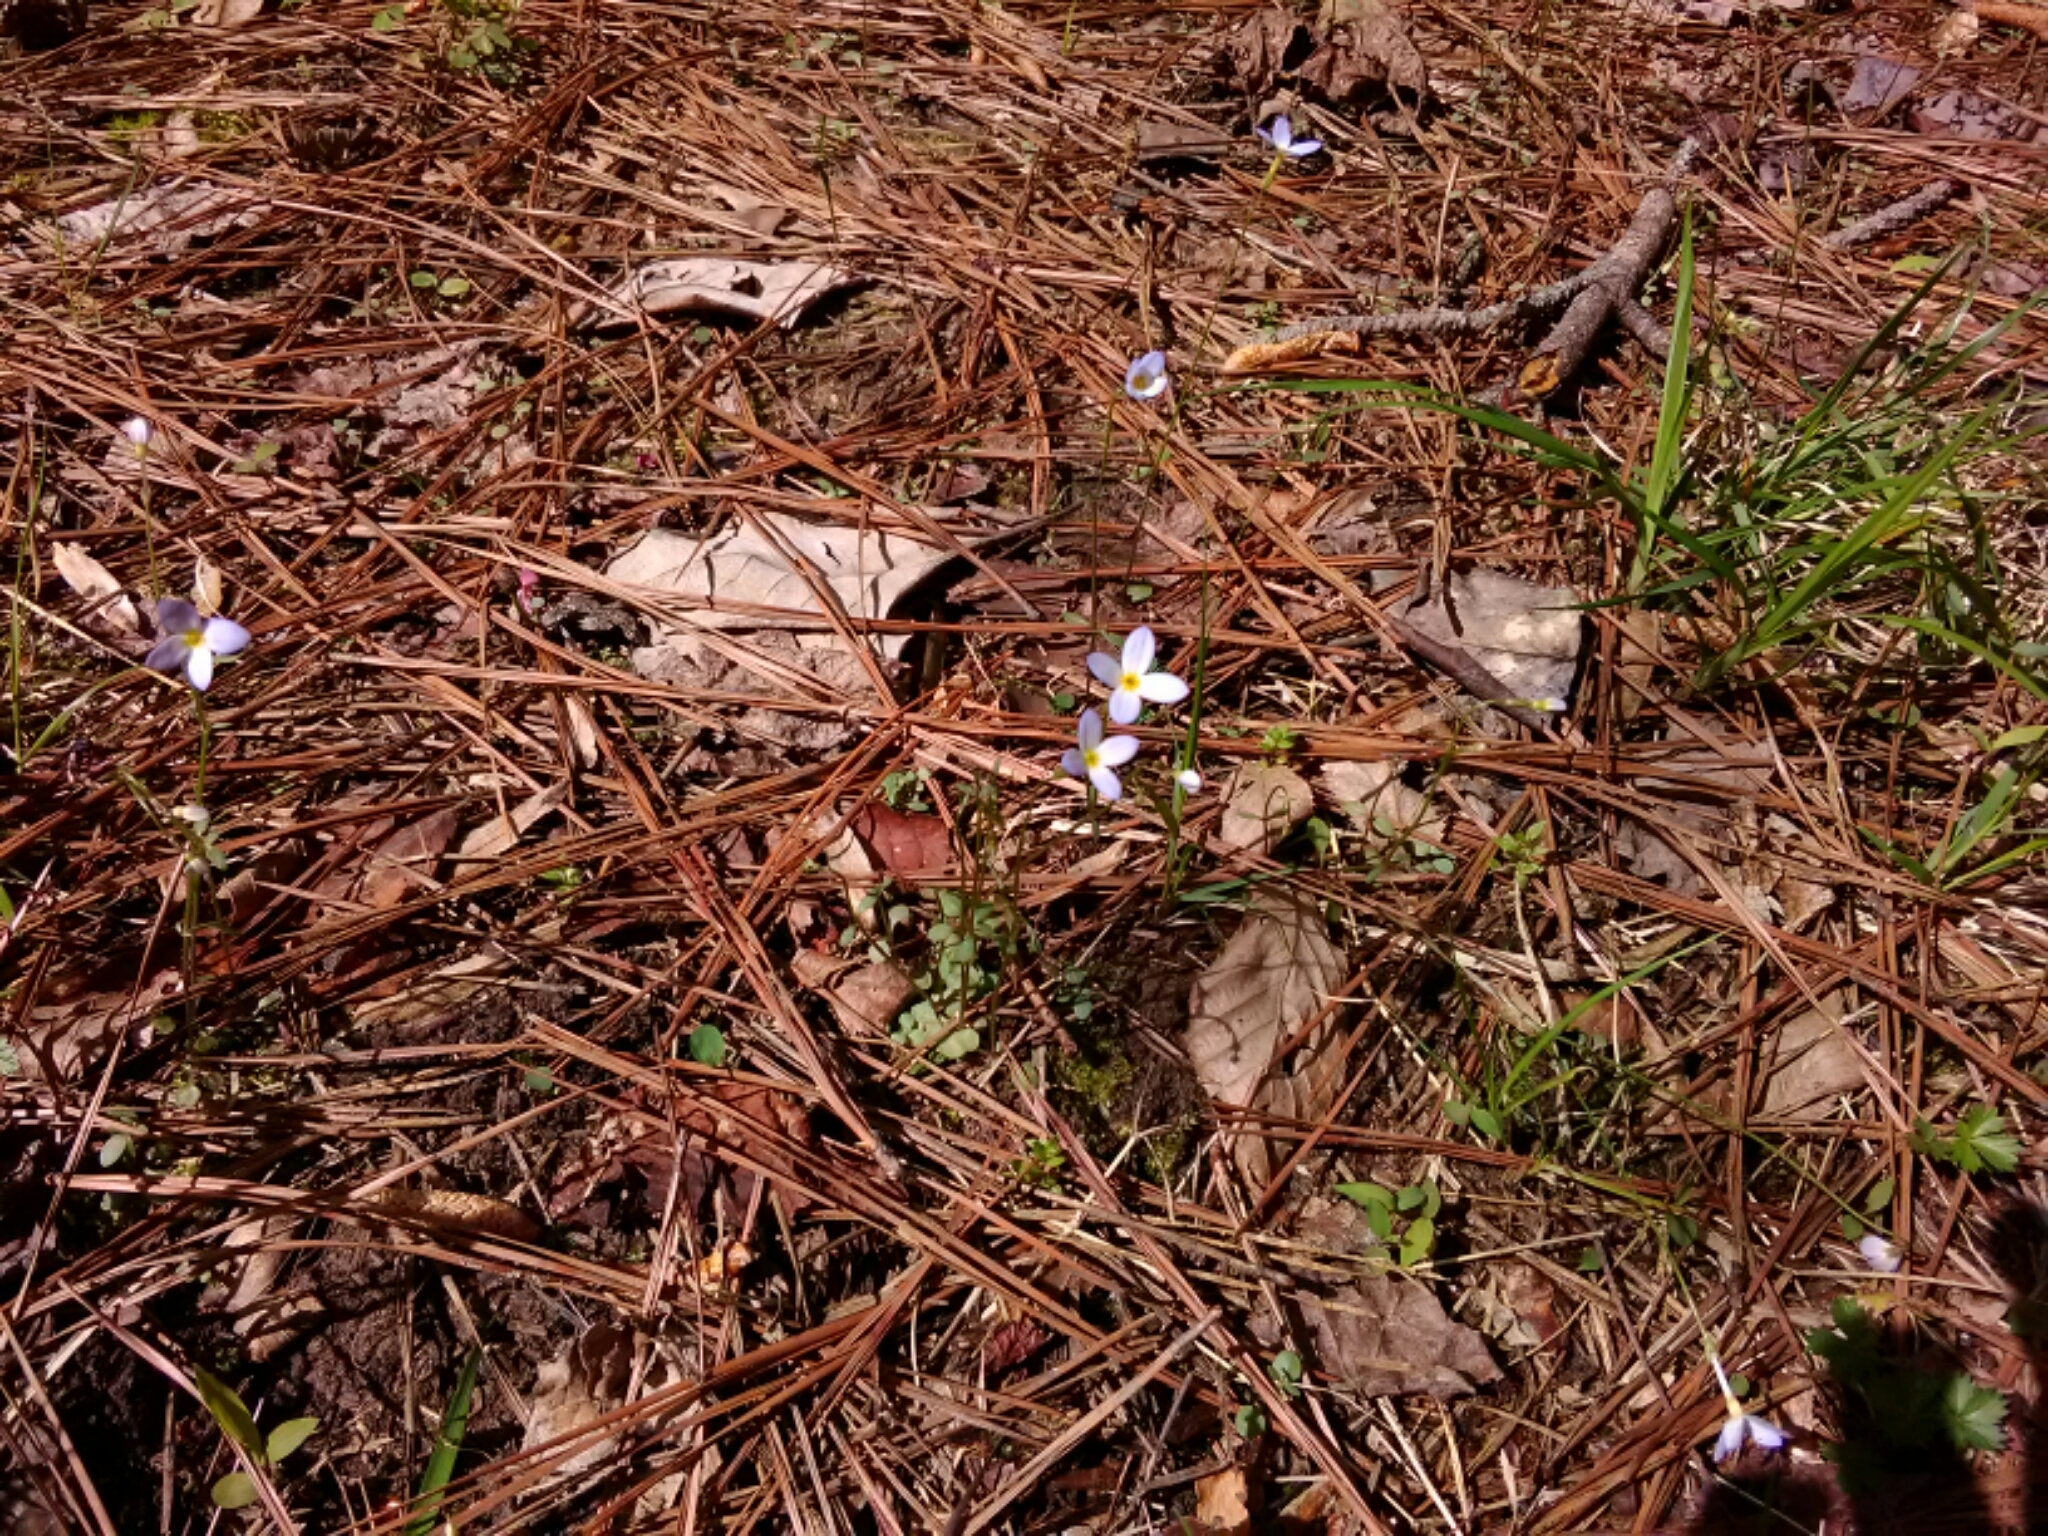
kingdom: Plantae
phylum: Tracheophyta
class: Magnoliopsida
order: Gentianales
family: Rubiaceae
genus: Houstonia
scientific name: Houstonia caerulea
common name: Bluets
